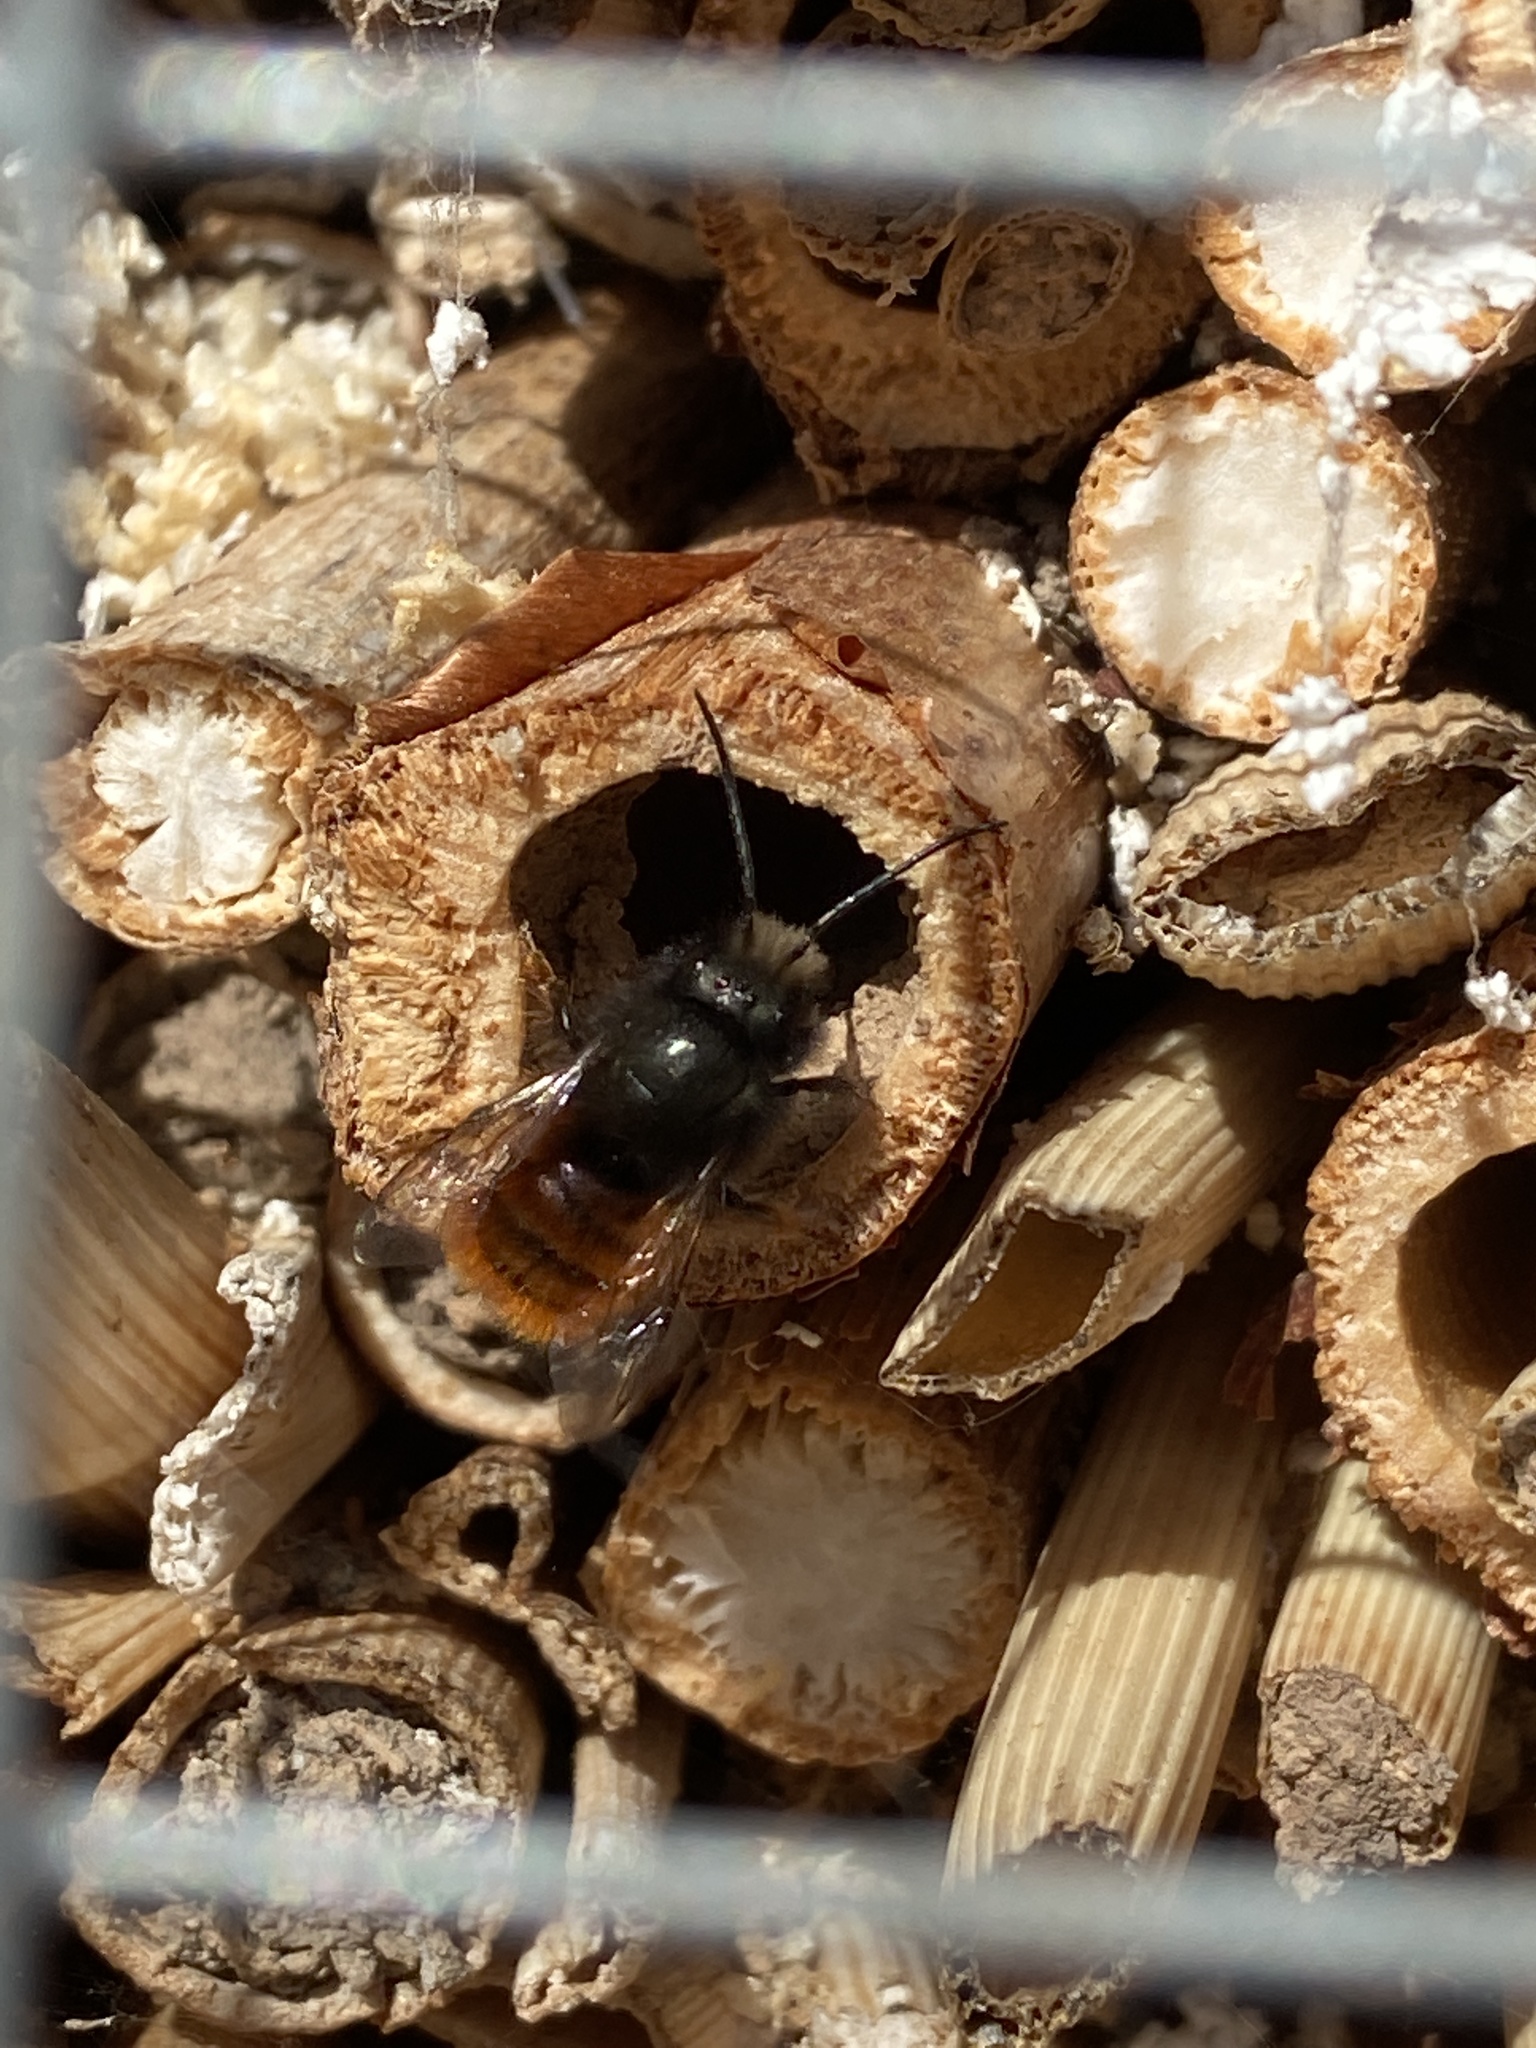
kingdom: Animalia
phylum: Arthropoda
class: Insecta
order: Hymenoptera
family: Megachilidae
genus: Osmia
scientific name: Osmia cornuta
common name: Mason bee
